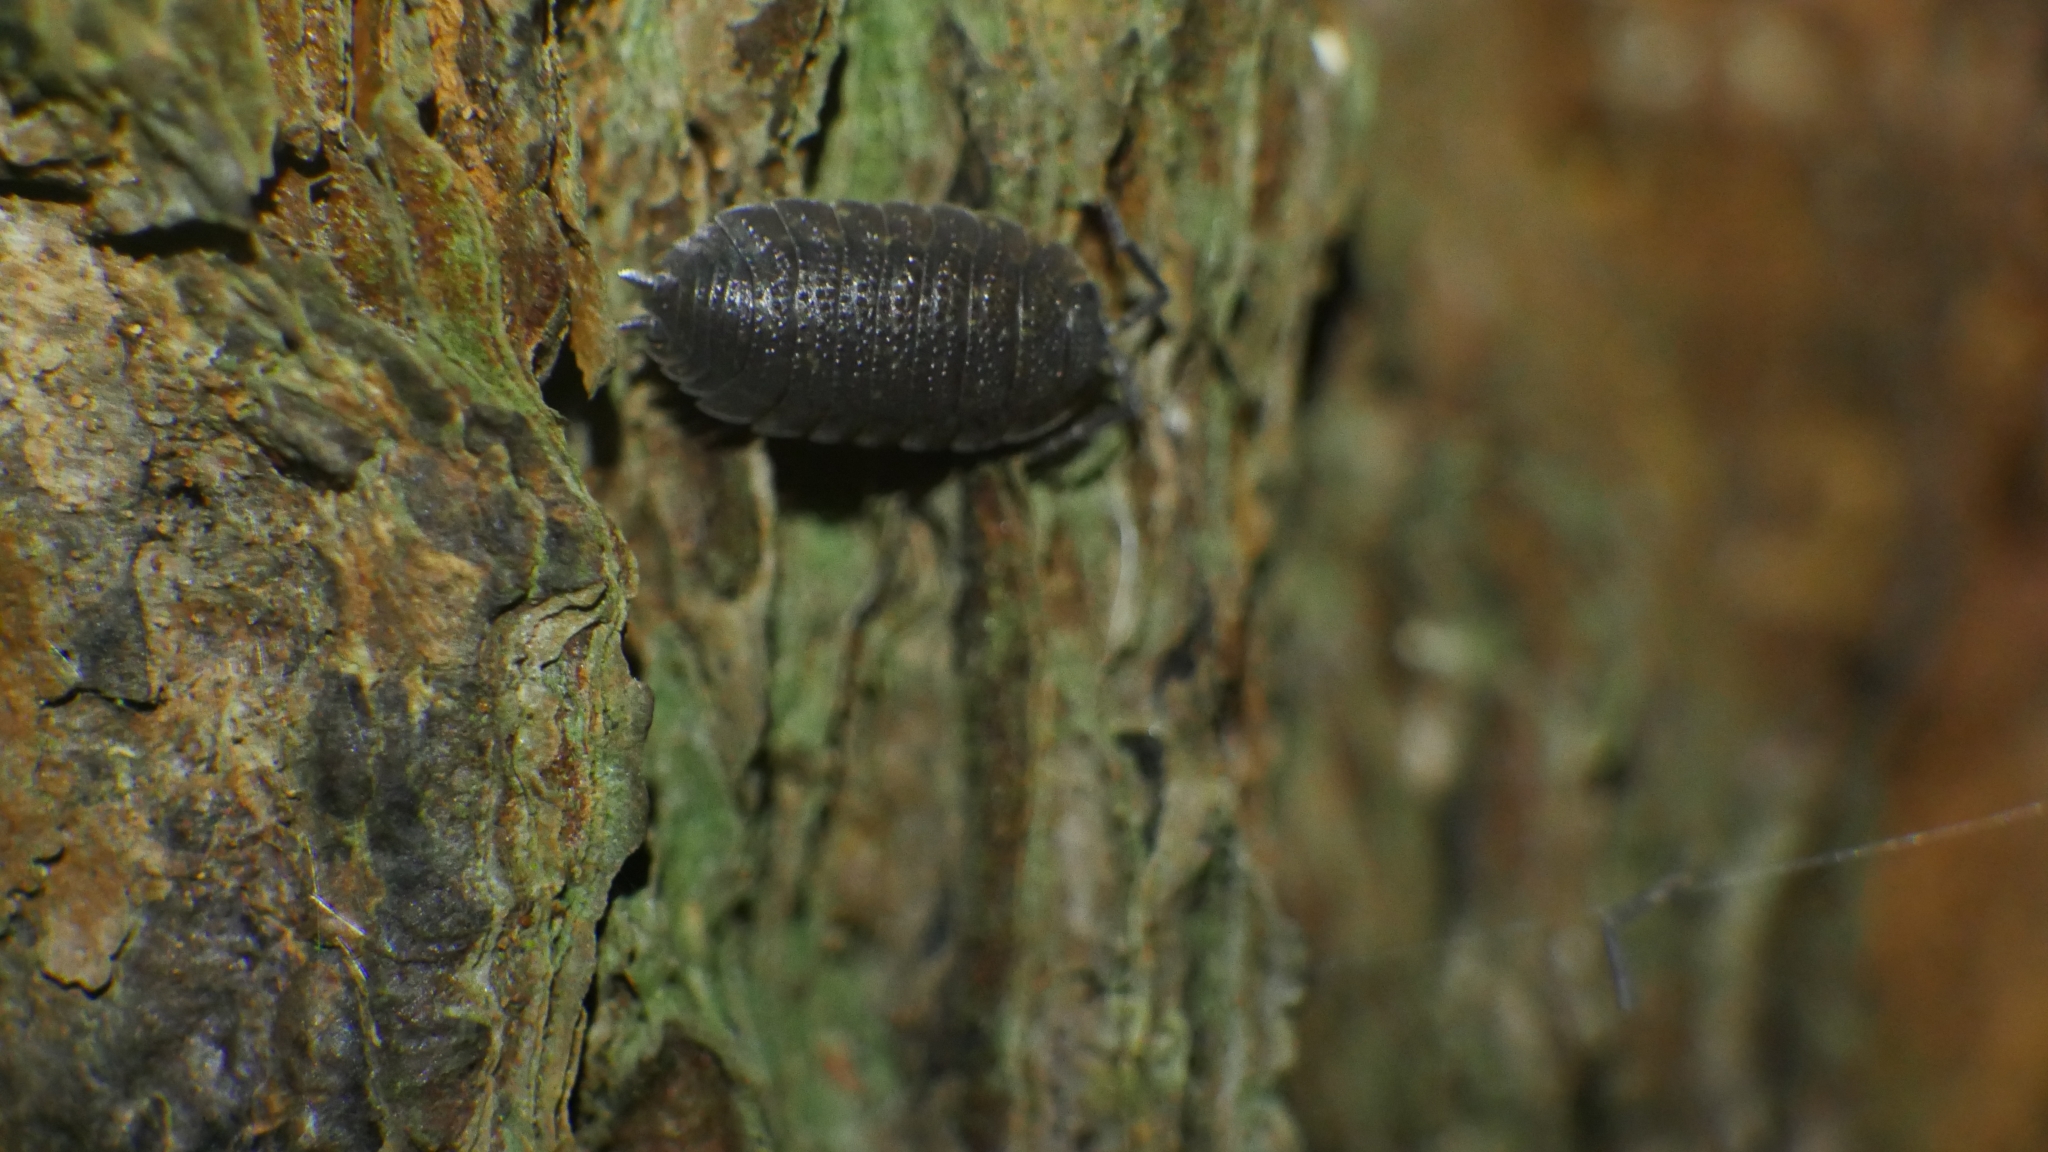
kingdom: Animalia
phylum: Arthropoda
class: Malacostraca
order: Isopoda
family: Porcellionidae
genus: Porcellio
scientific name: Porcellio scaber
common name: Common rough woodlouse
